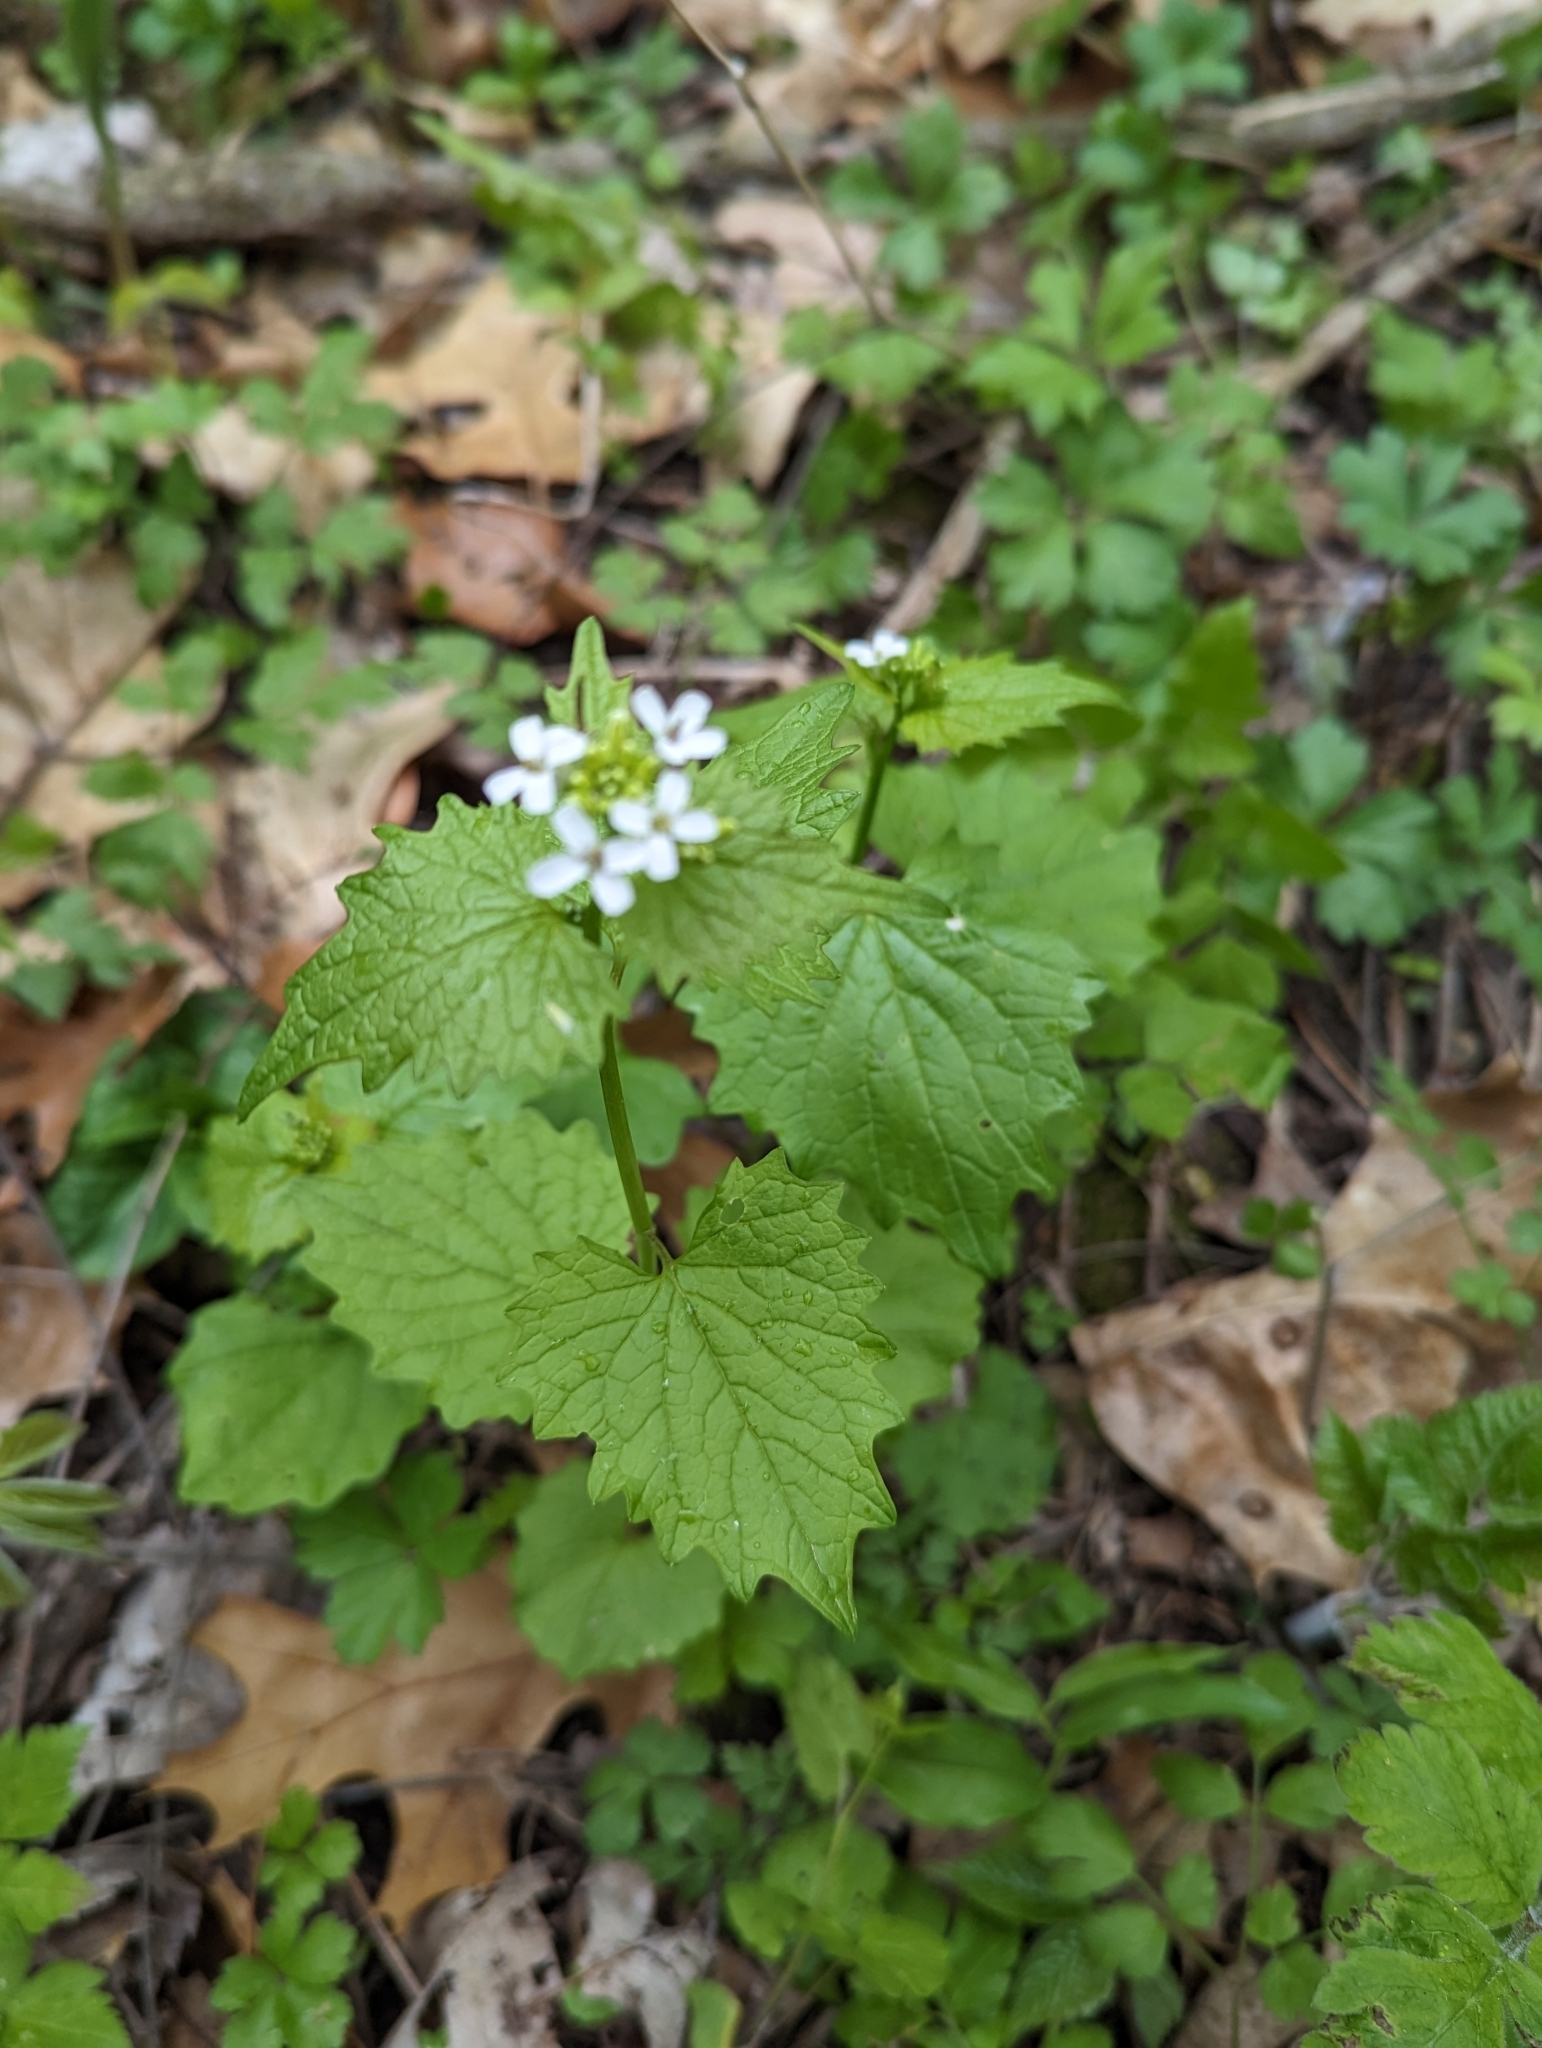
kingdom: Plantae
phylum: Tracheophyta
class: Magnoliopsida
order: Brassicales
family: Brassicaceae
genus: Alliaria
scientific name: Alliaria petiolata
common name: Garlic mustard
